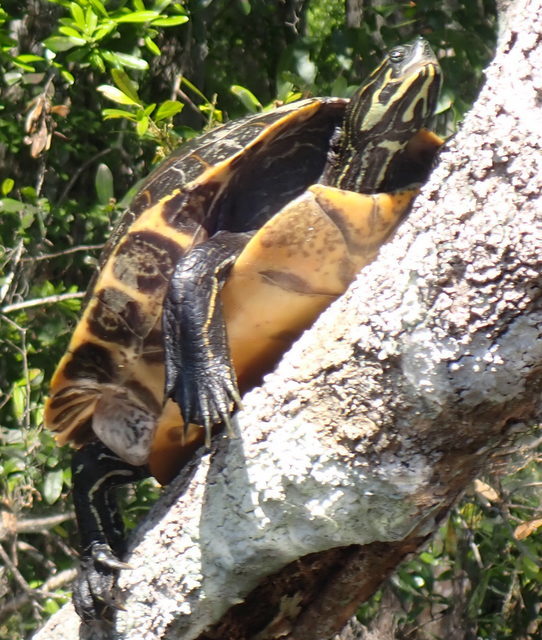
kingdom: Animalia
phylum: Chordata
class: Testudines
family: Emydidae
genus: Pseudemys
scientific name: Pseudemys concinna
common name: Eastern river cooter
